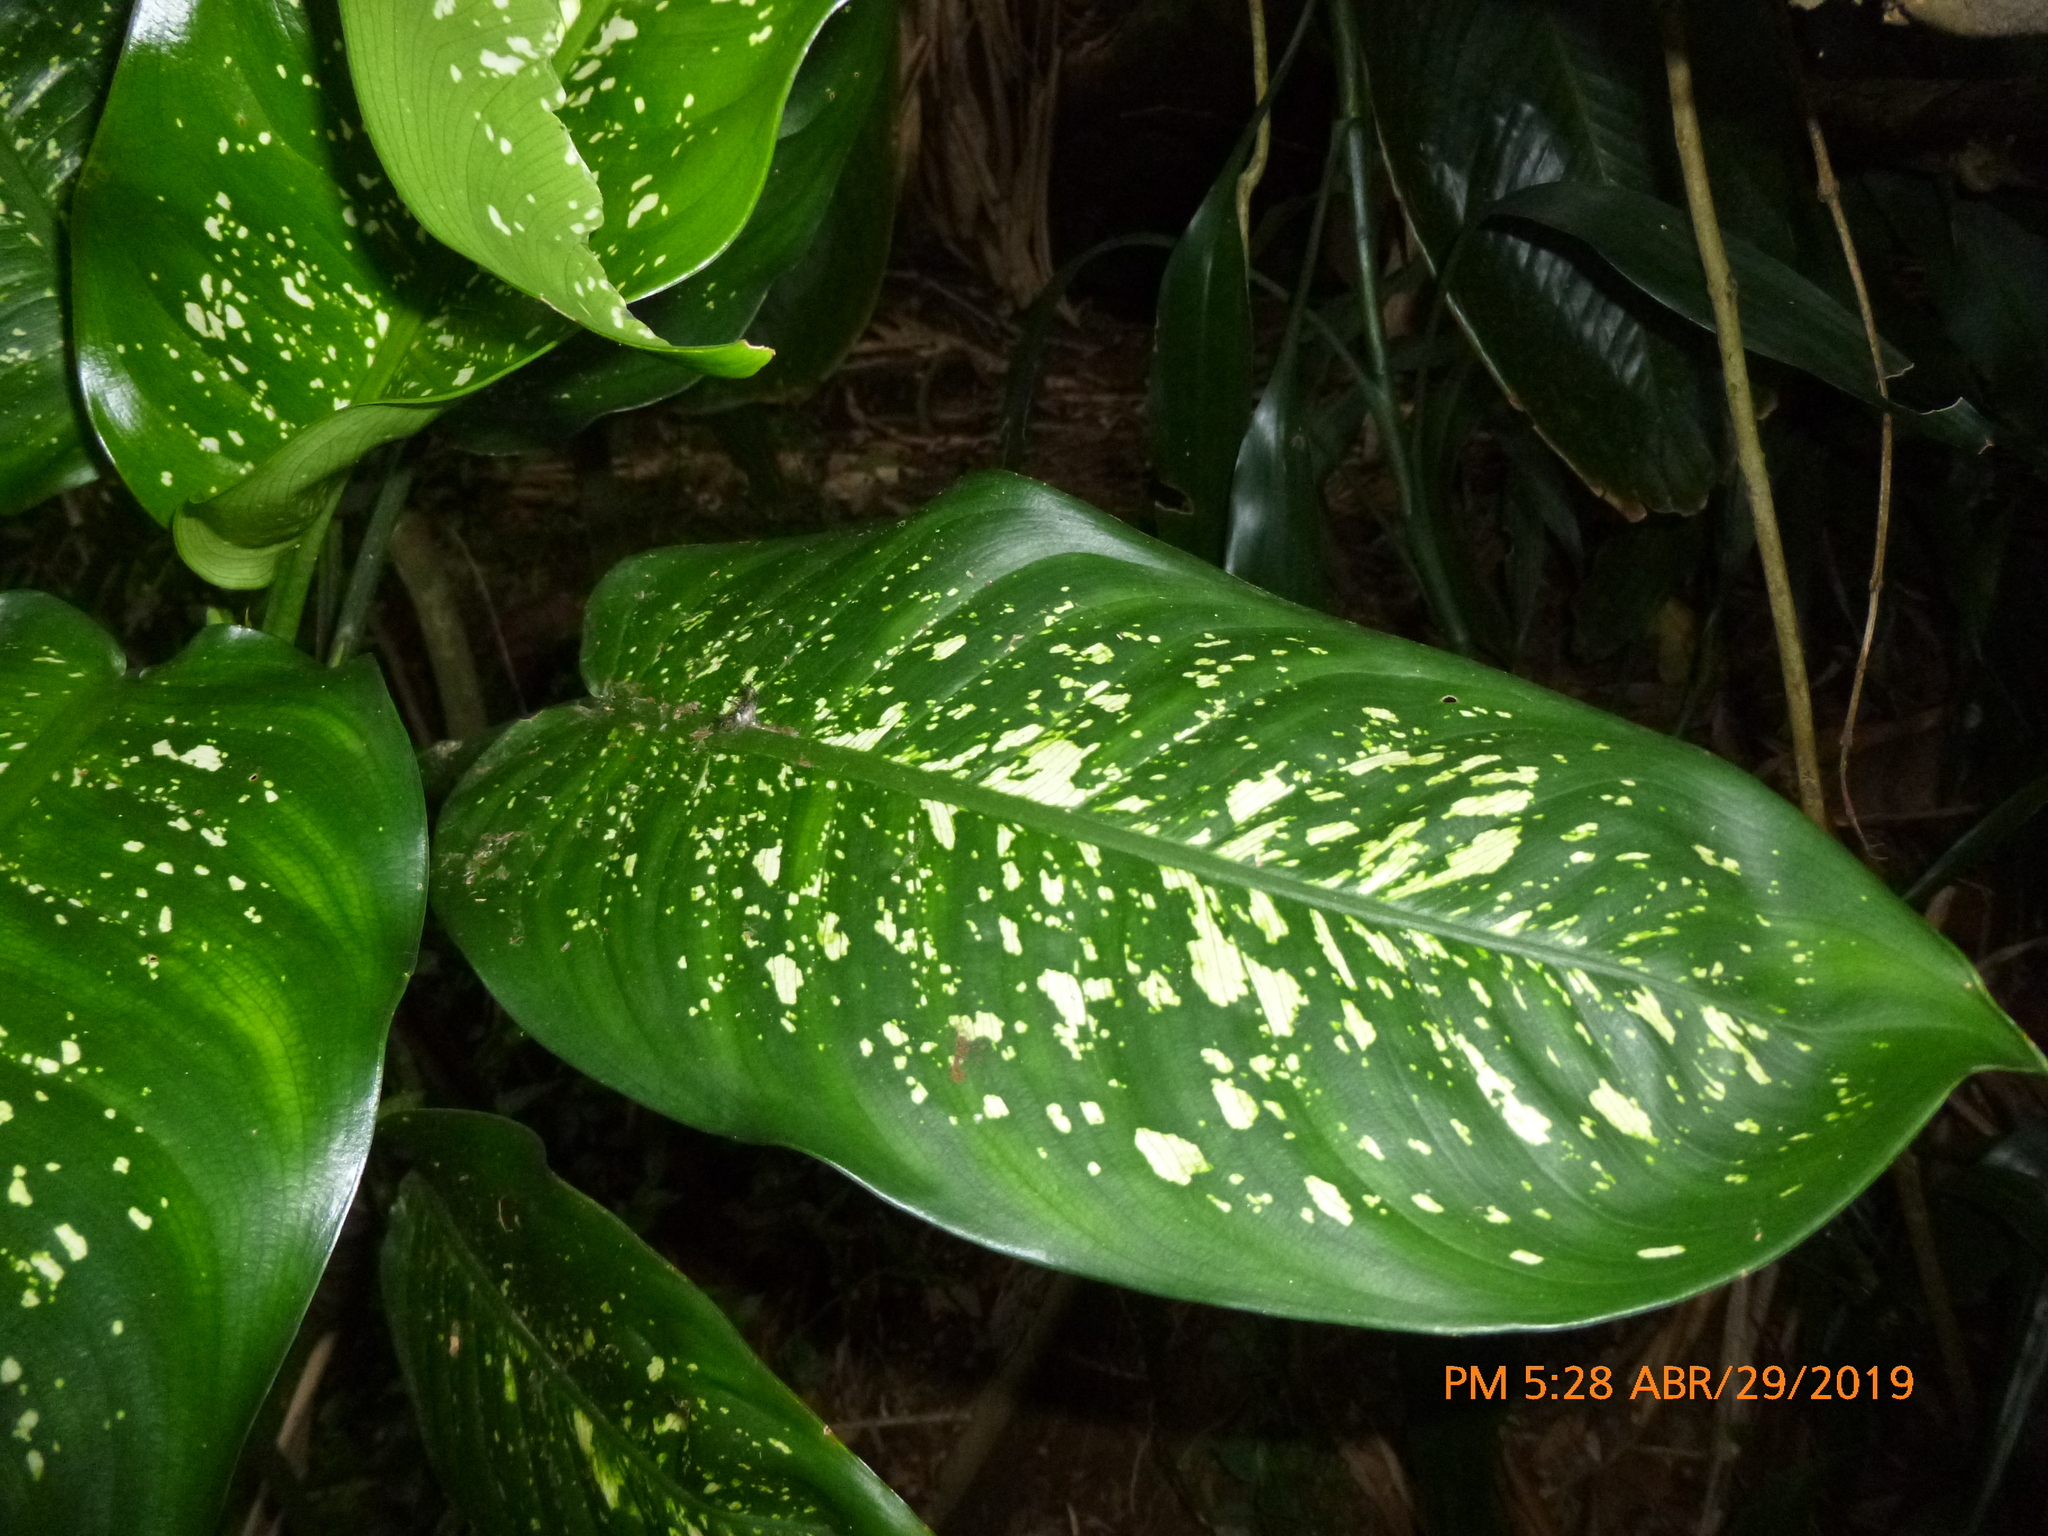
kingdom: Plantae
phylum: Tracheophyta
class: Liliopsida
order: Alismatales
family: Araceae
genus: Dieffenbachia
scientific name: Dieffenbachia seguine
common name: Dumbcane
